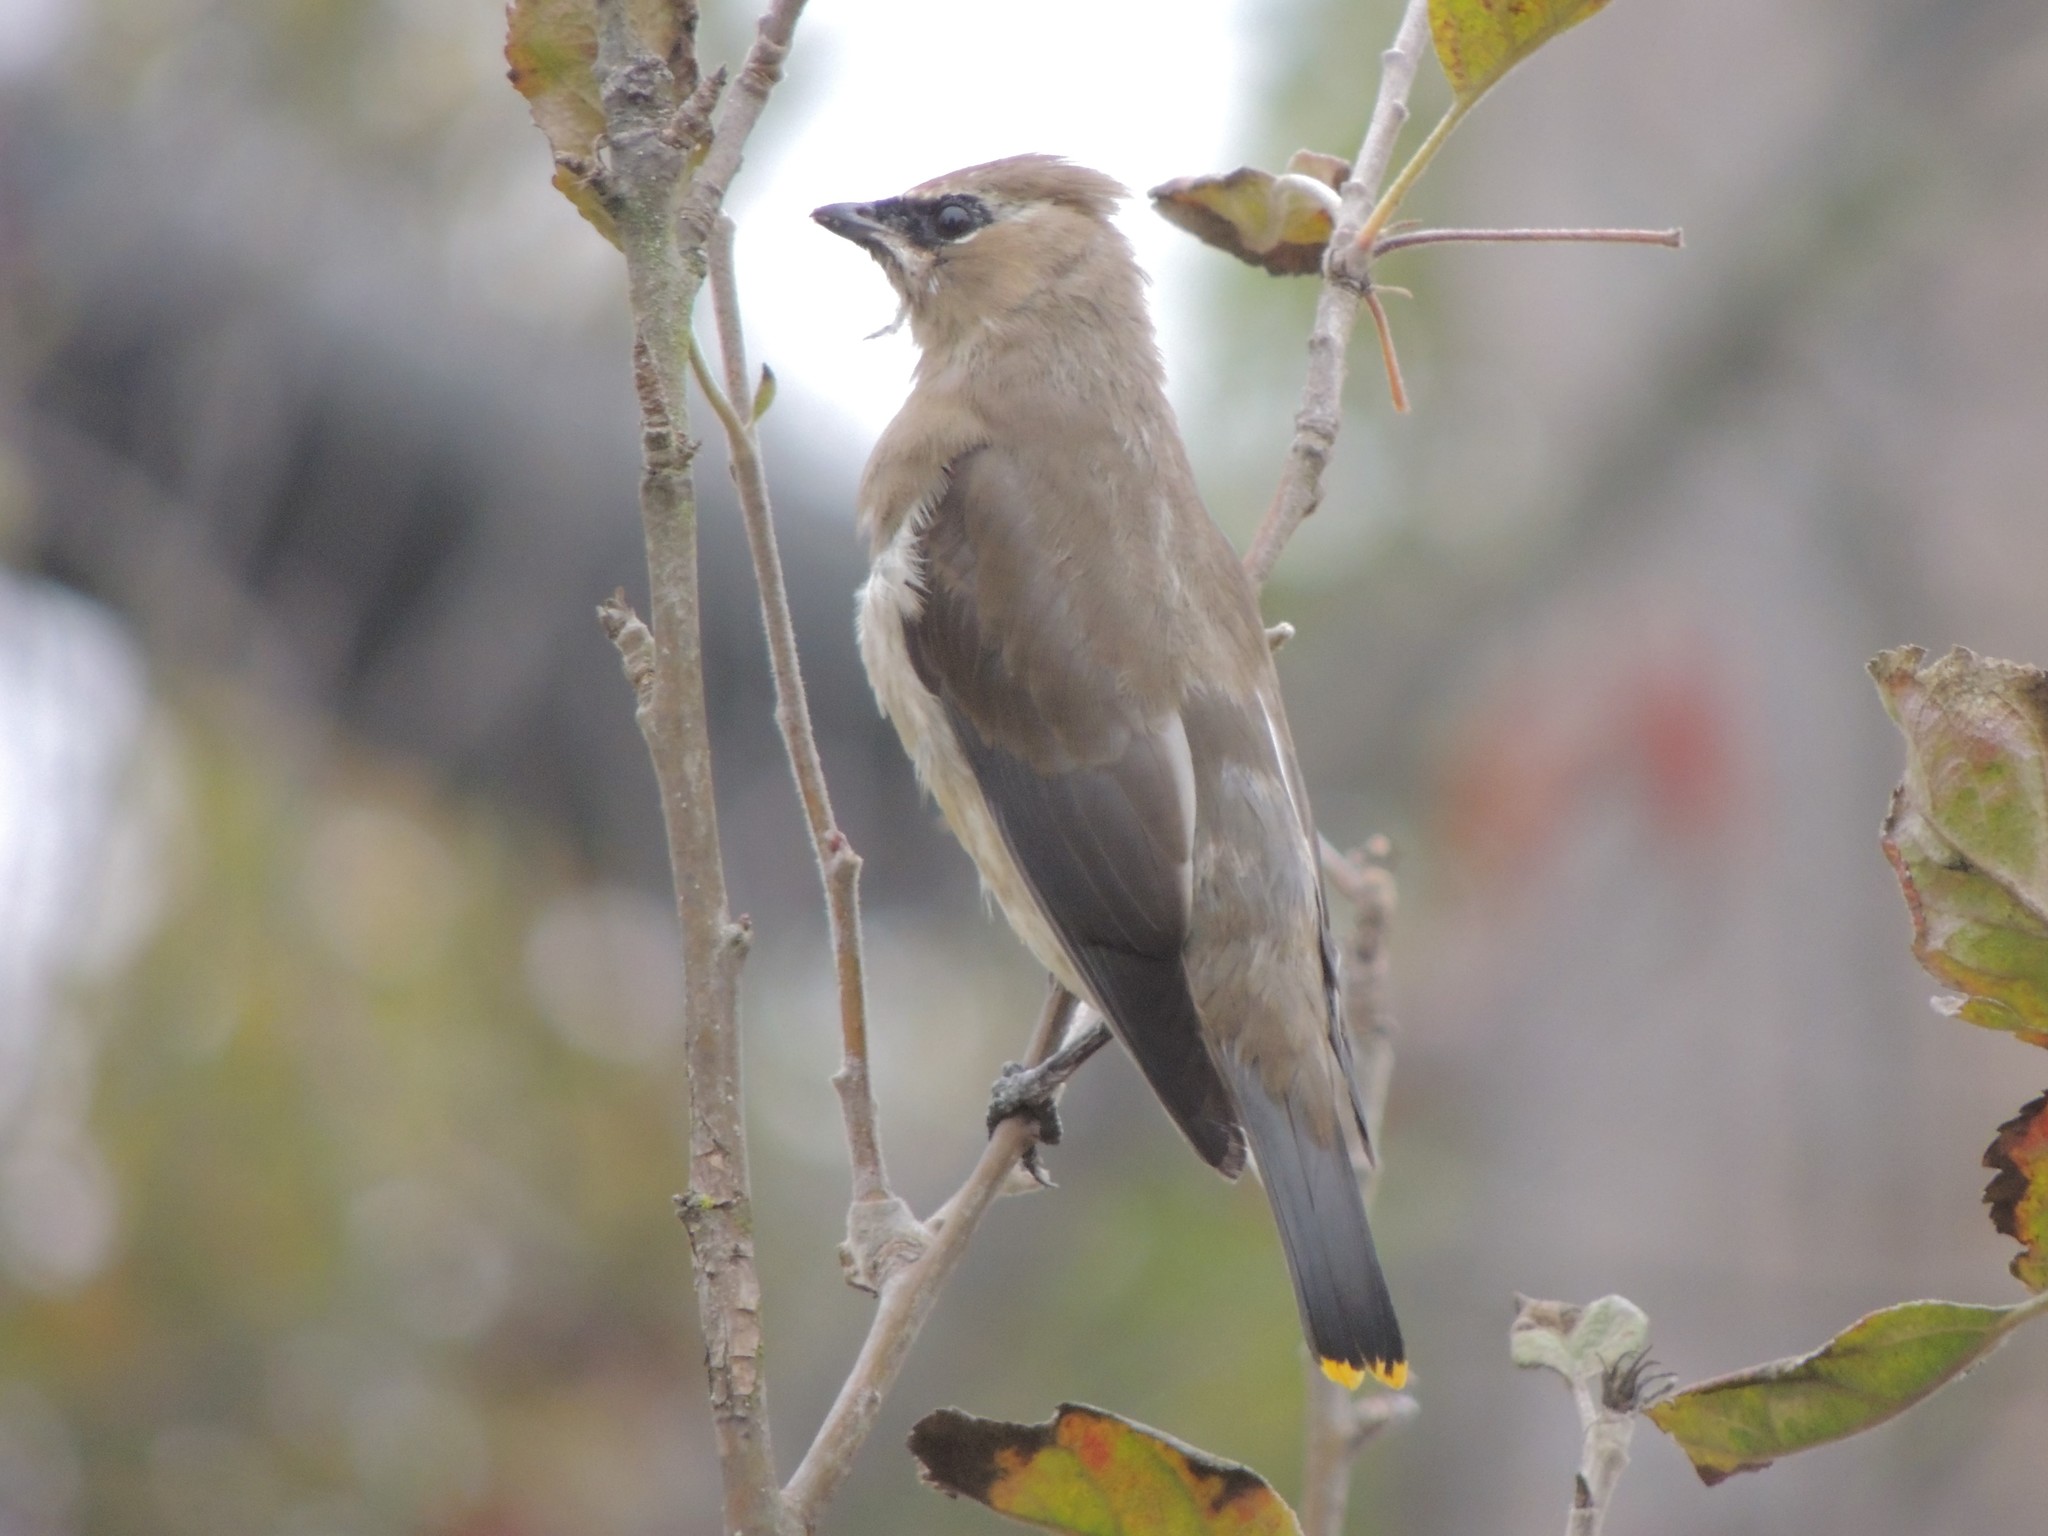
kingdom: Animalia
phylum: Chordata
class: Aves
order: Passeriformes
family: Bombycillidae
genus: Bombycilla
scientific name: Bombycilla cedrorum
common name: Cedar waxwing
